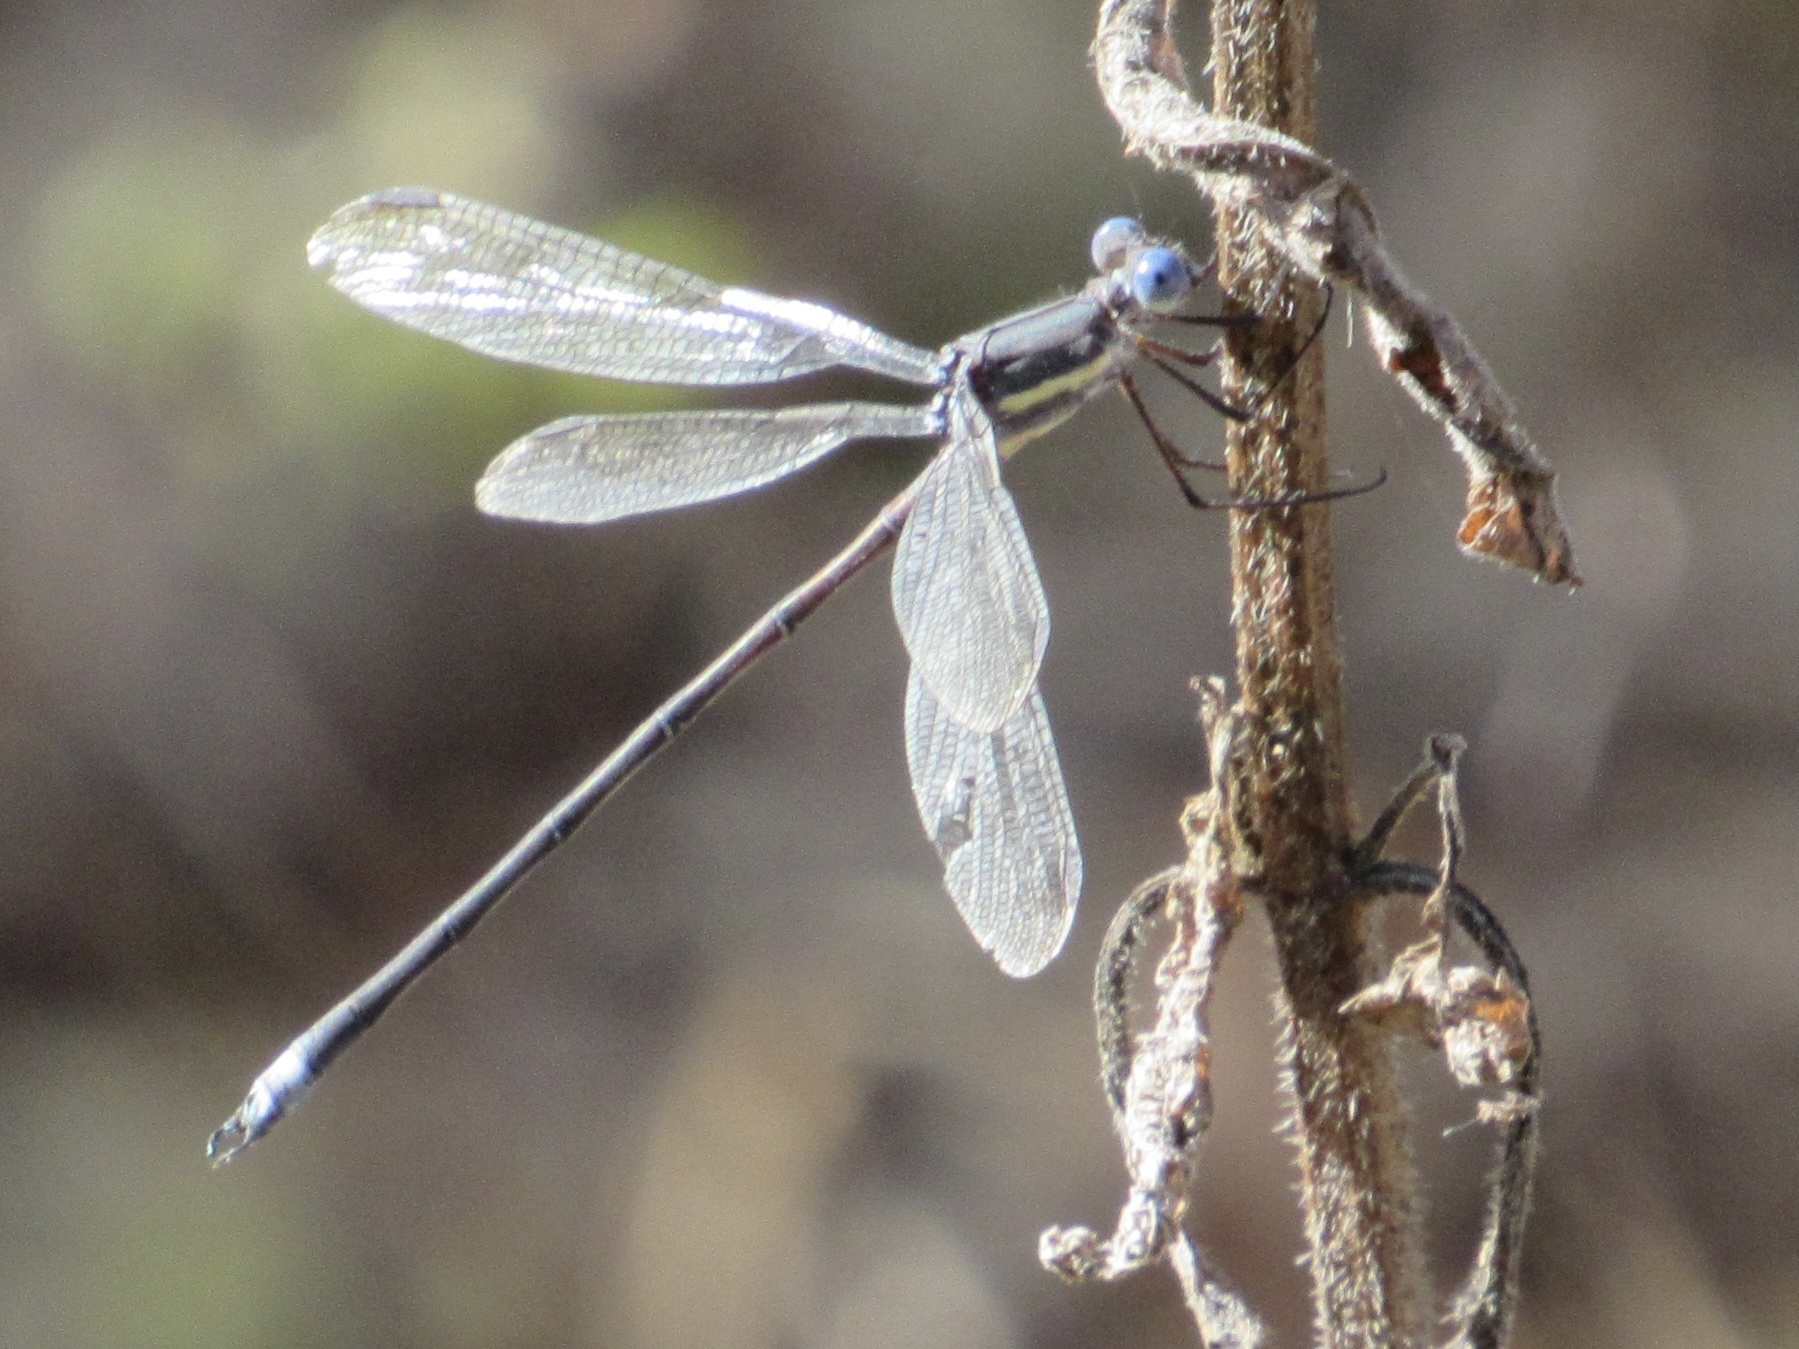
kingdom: Animalia
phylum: Arthropoda
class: Insecta
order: Odonata
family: Lestidae
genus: Archilestes
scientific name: Archilestes grandis
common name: Great spreadwing
